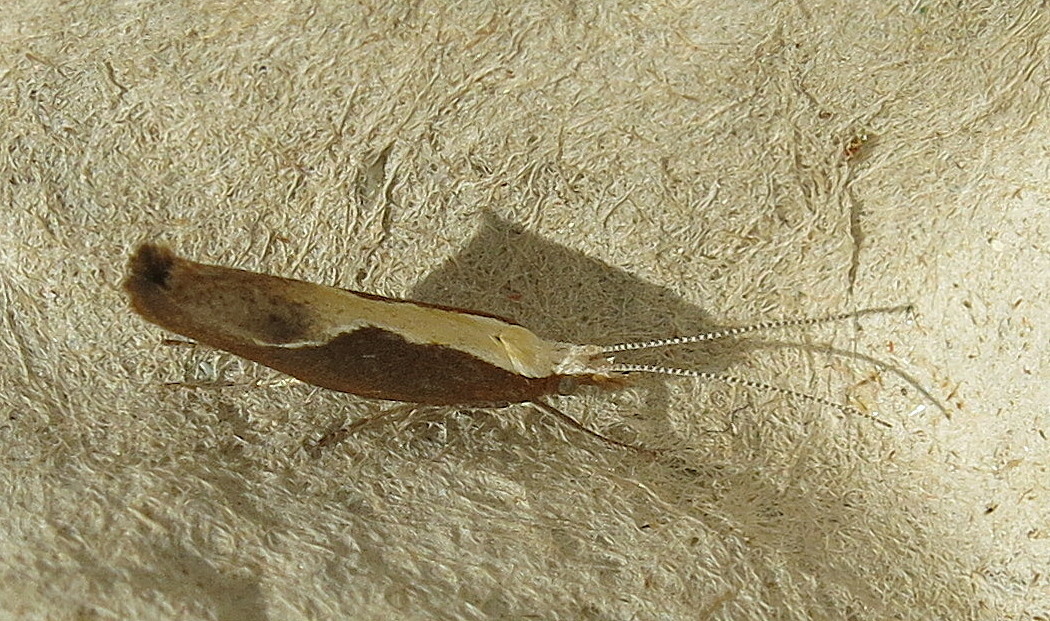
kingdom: Animalia
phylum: Arthropoda
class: Insecta
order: Lepidoptera
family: Ypsolophidae
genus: Ypsolopha
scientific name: Ypsolopha dentella
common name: Honeysuckle moth
